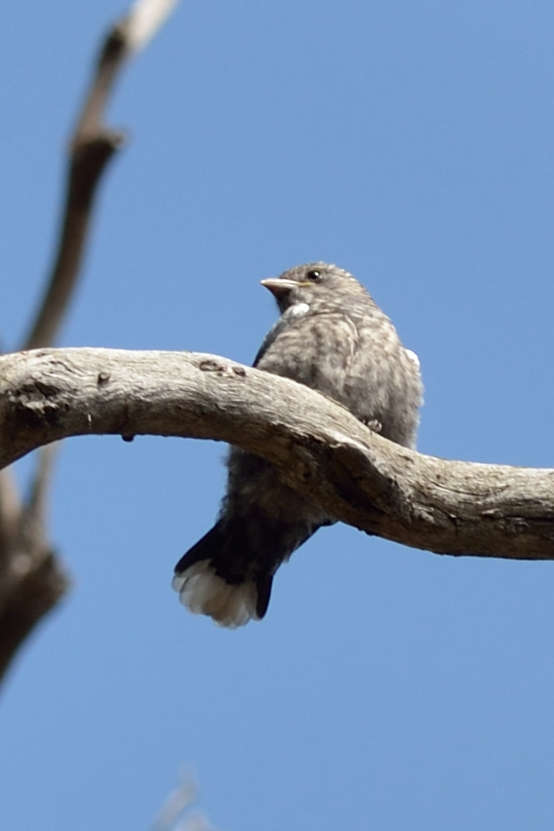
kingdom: Animalia
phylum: Chordata
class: Aves
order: Passeriformes
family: Artamidae
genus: Artamus
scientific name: Artamus cyanopterus
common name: Dusky woodswallow
